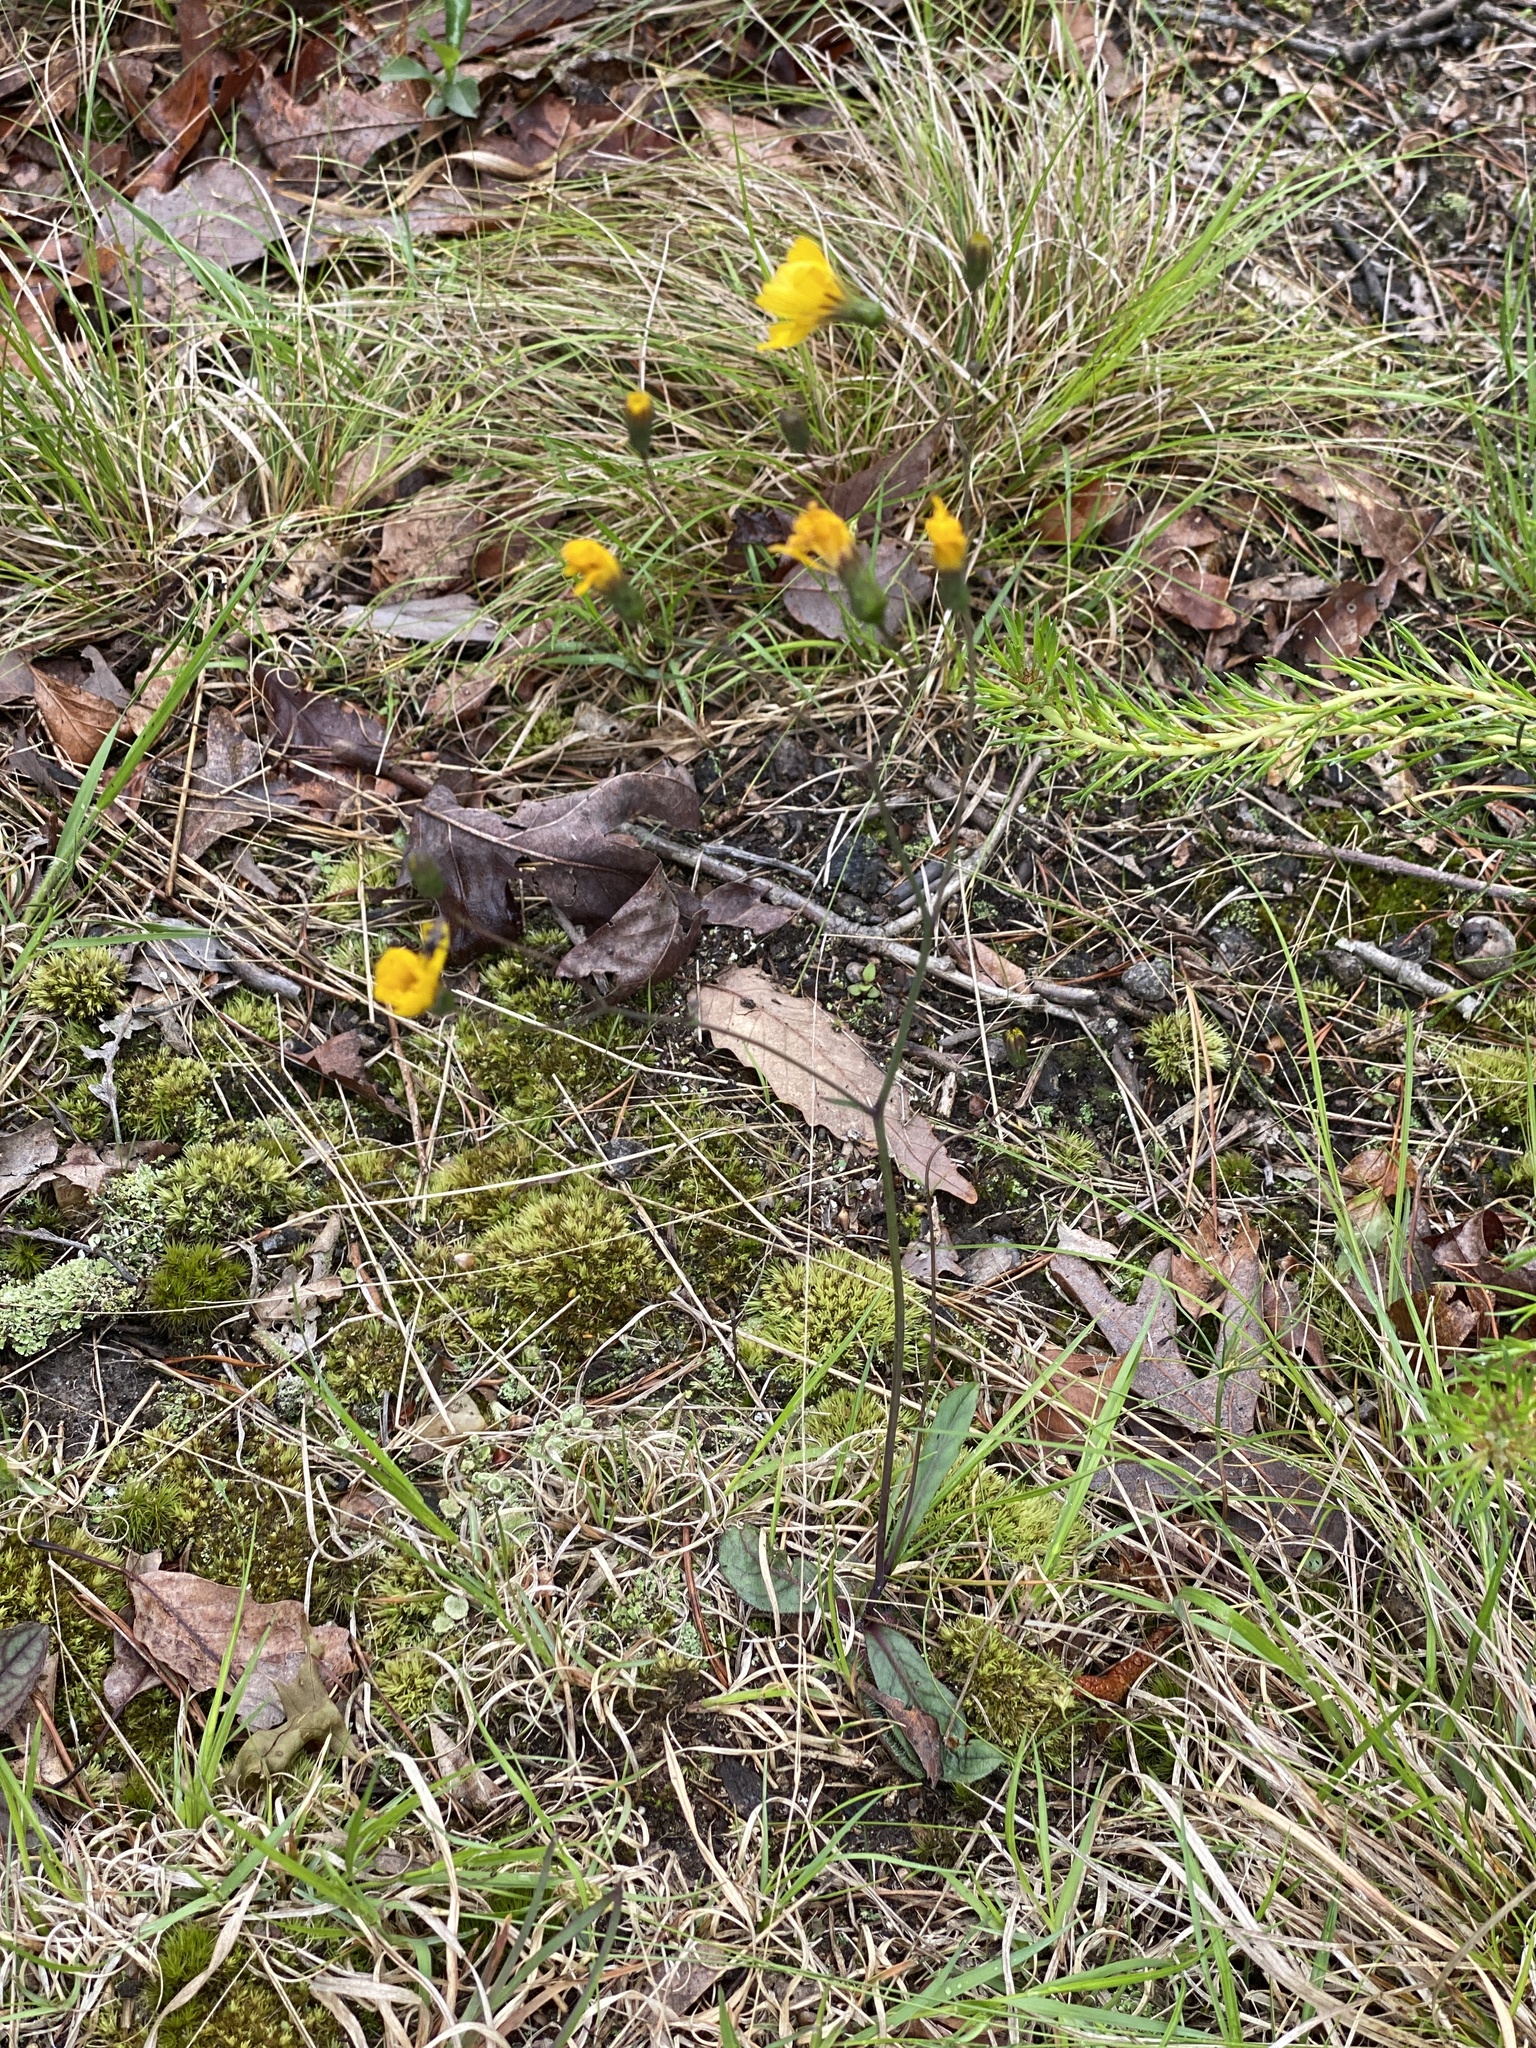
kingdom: Plantae
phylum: Tracheophyta
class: Magnoliopsida
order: Asterales
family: Asteraceae
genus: Hieracium
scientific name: Hieracium venosum
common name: Rattlesnake hawkweed
